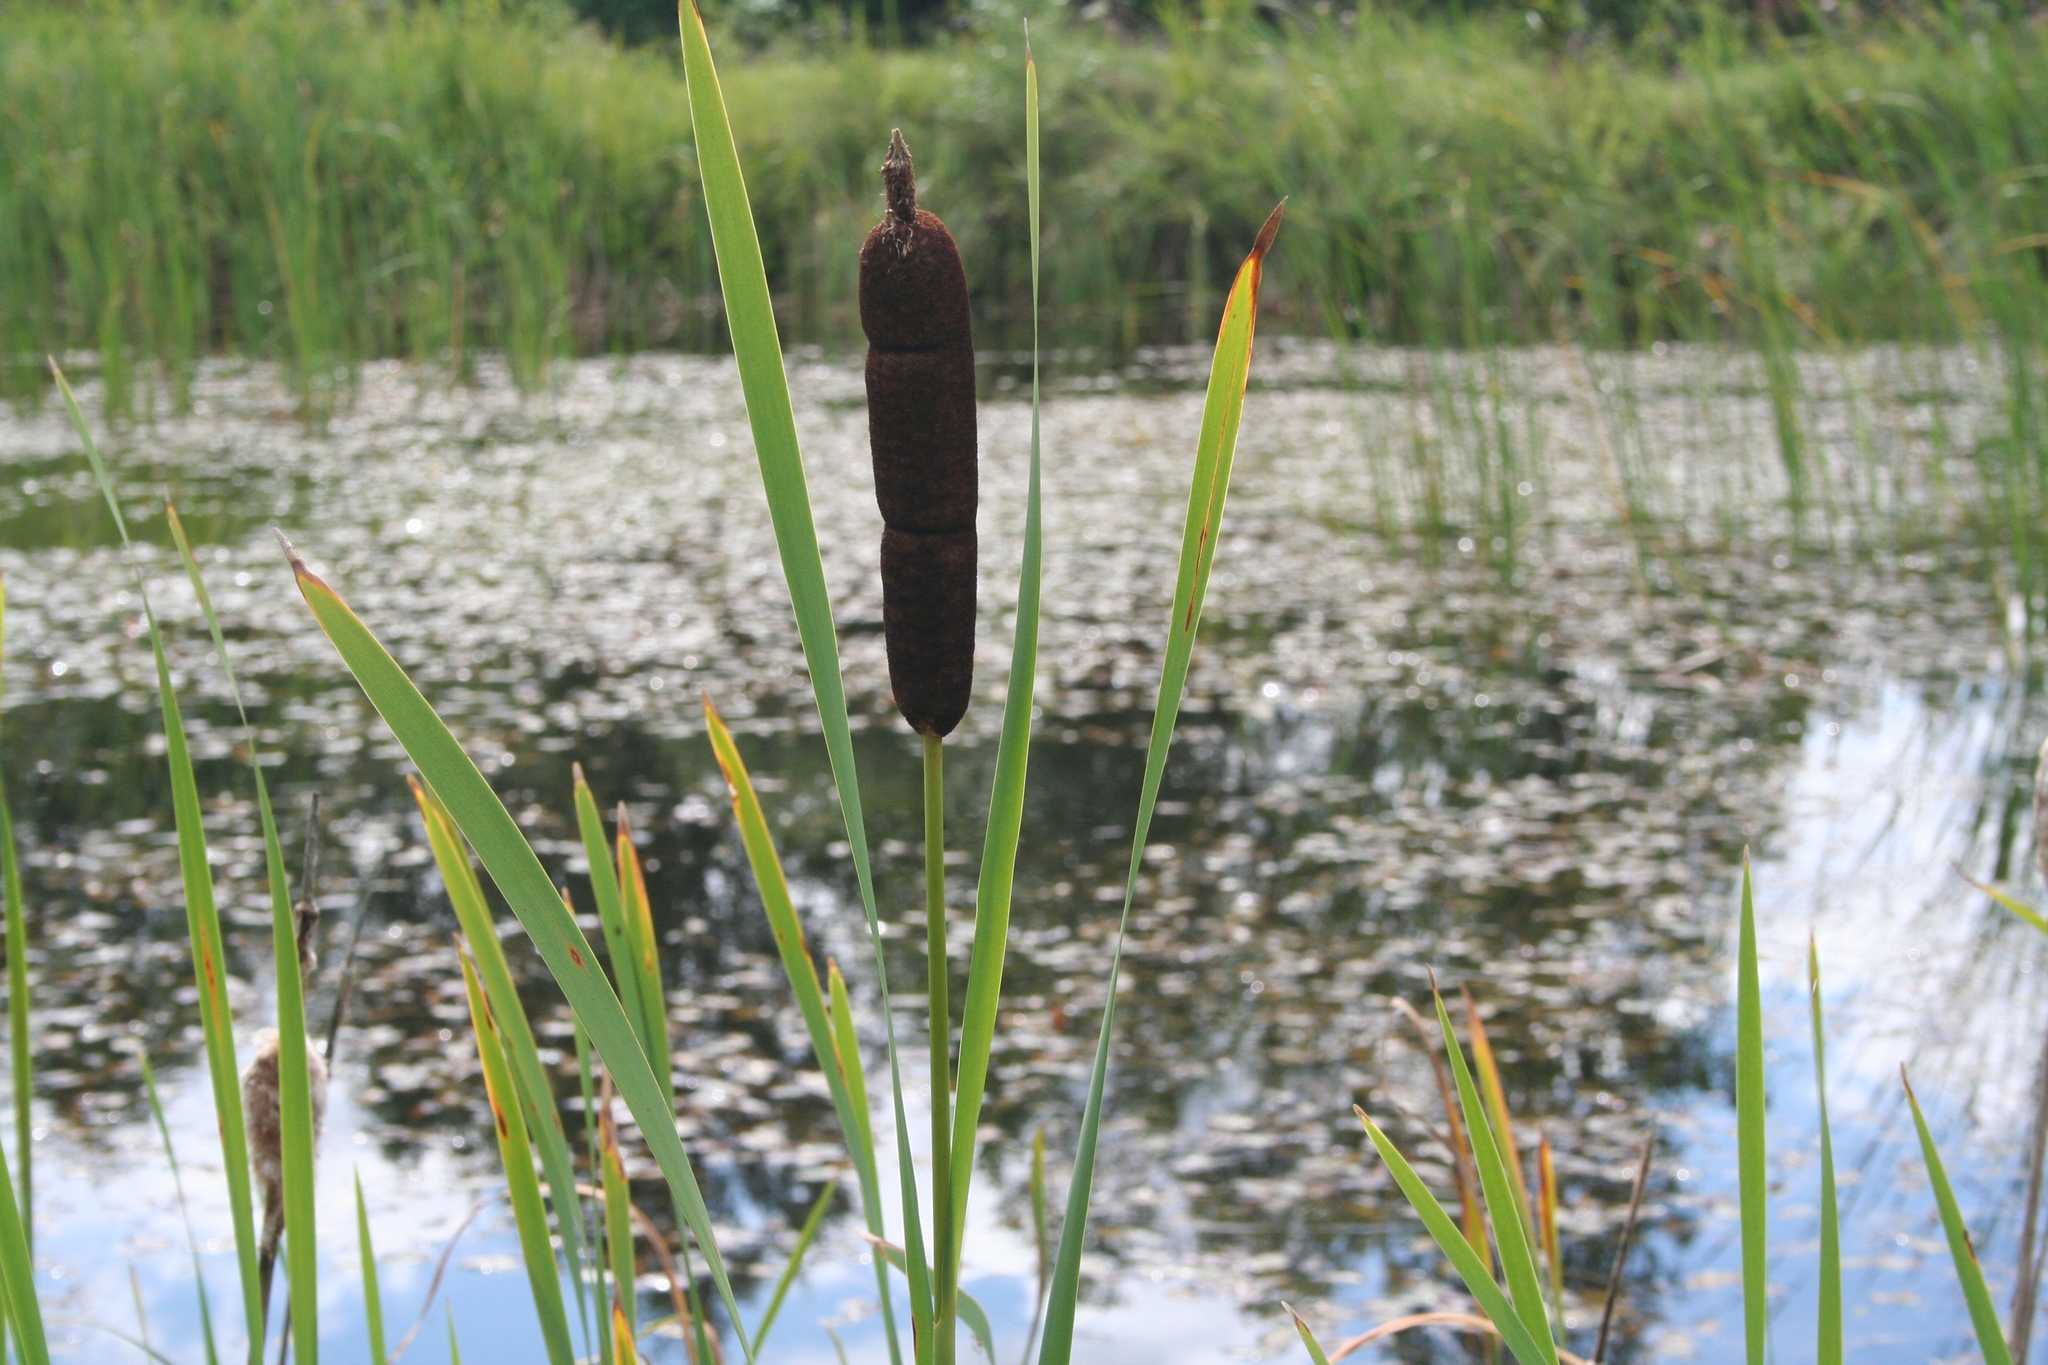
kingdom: Plantae
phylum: Tracheophyta
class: Liliopsida
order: Poales
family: Typhaceae
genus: Typha
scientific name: Typha latifolia
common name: Broadleaf cattail
